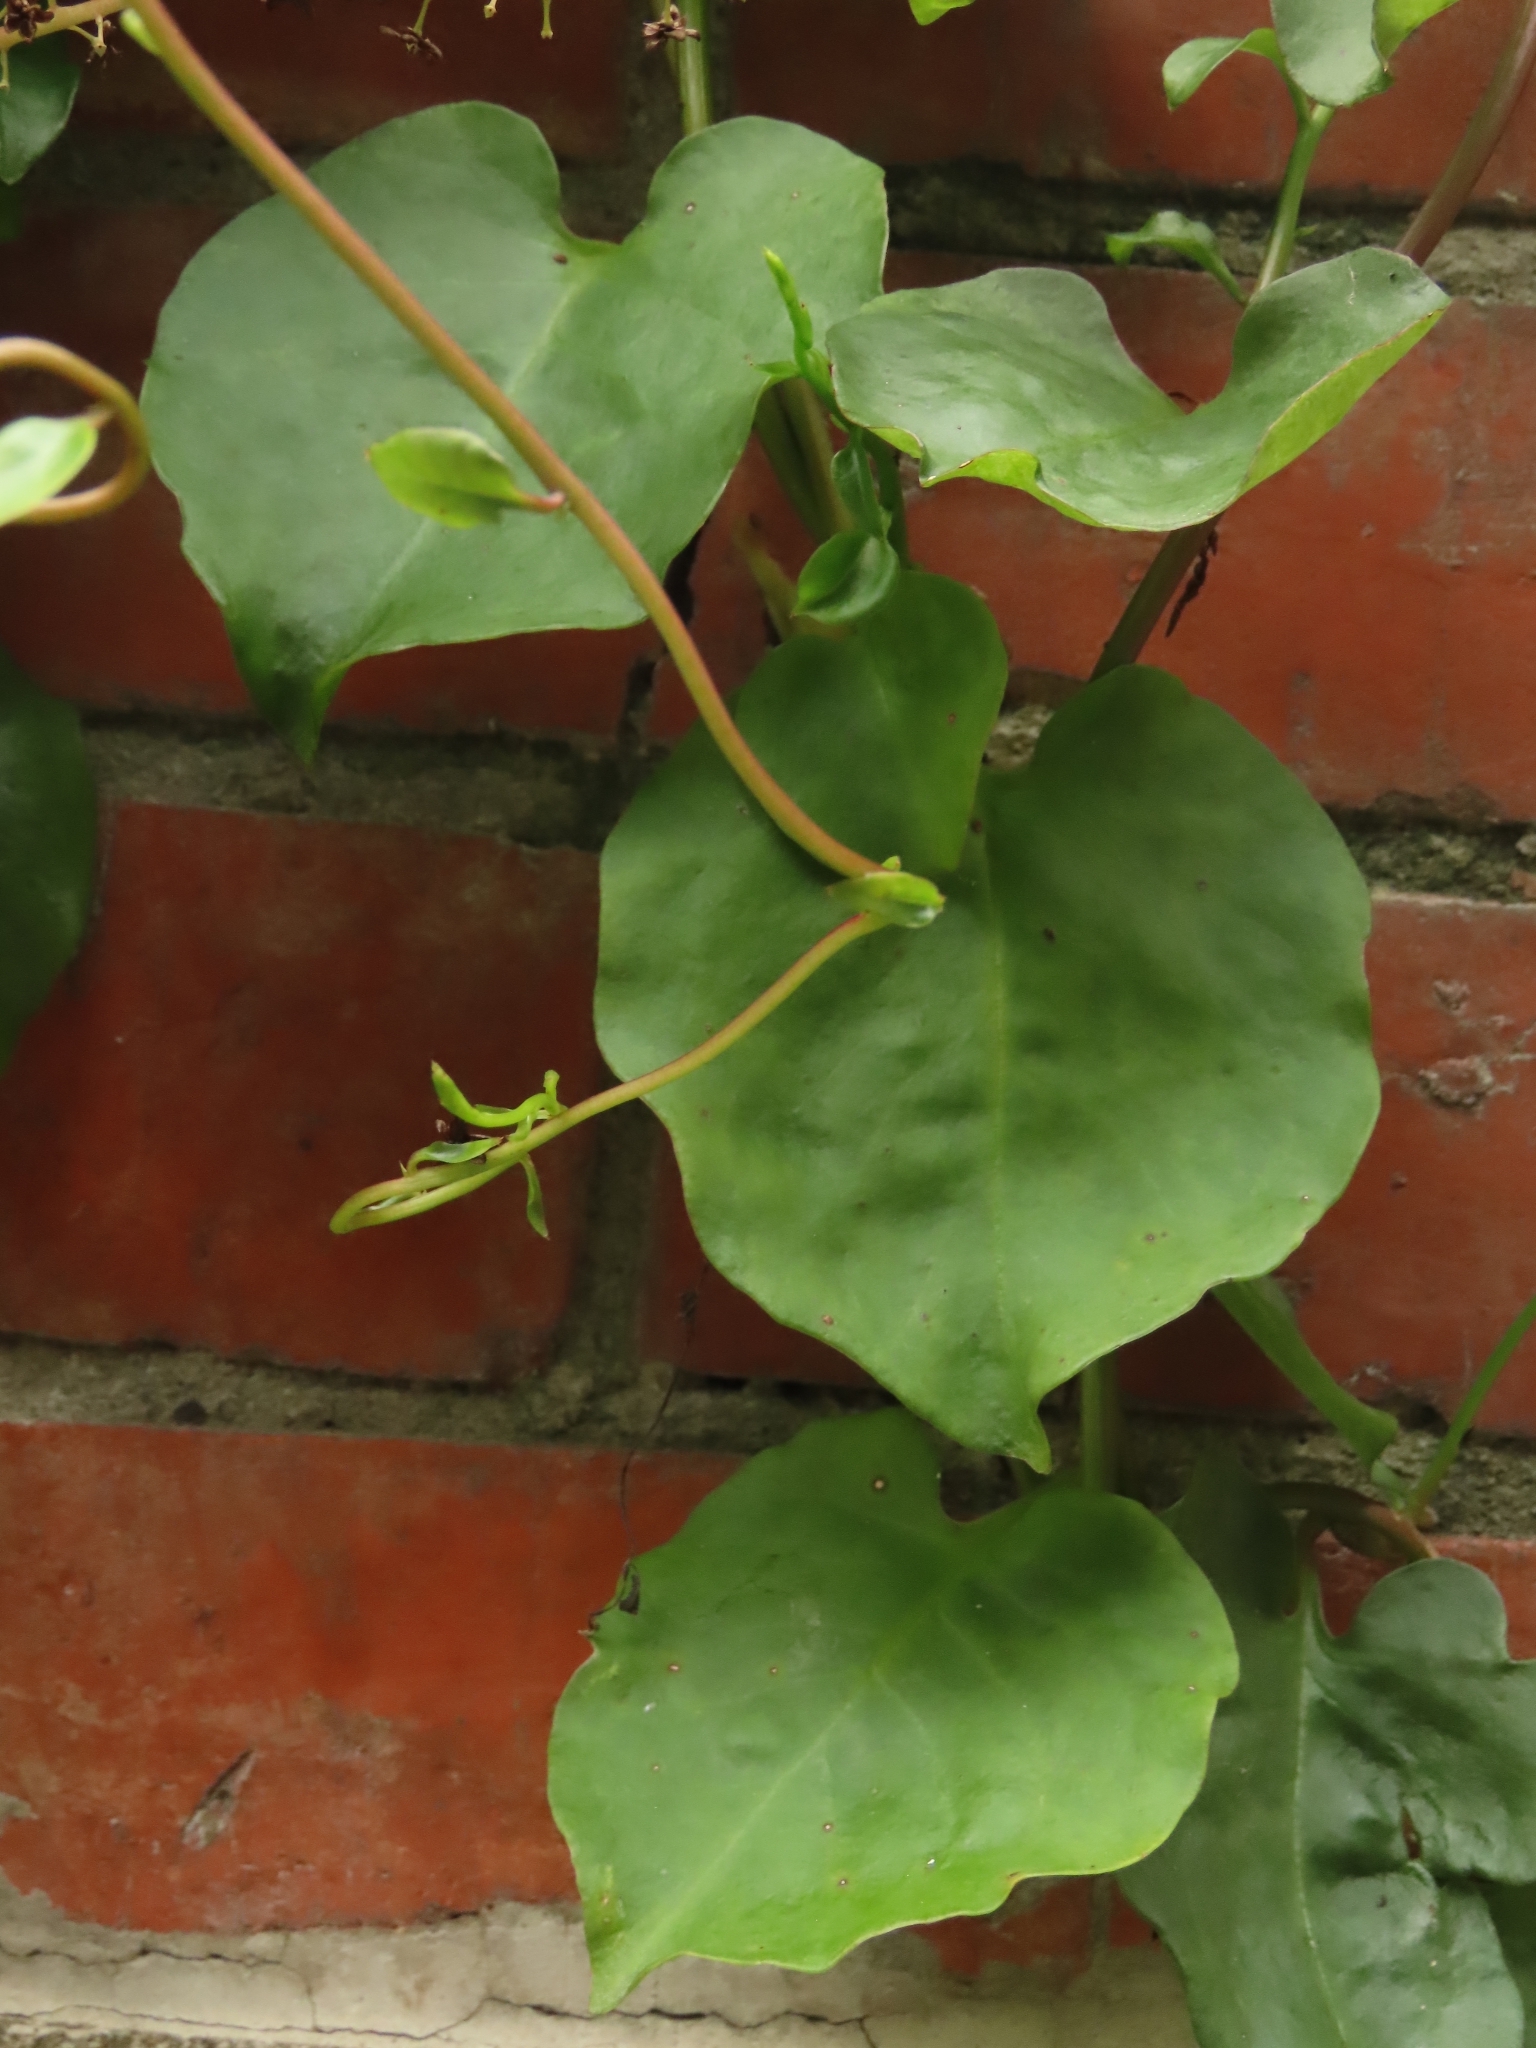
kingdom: Plantae
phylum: Tracheophyta
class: Magnoliopsida
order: Caryophyllales
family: Basellaceae
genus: Anredera
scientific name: Anredera cordifolia
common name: Heartleaf madeiravine
